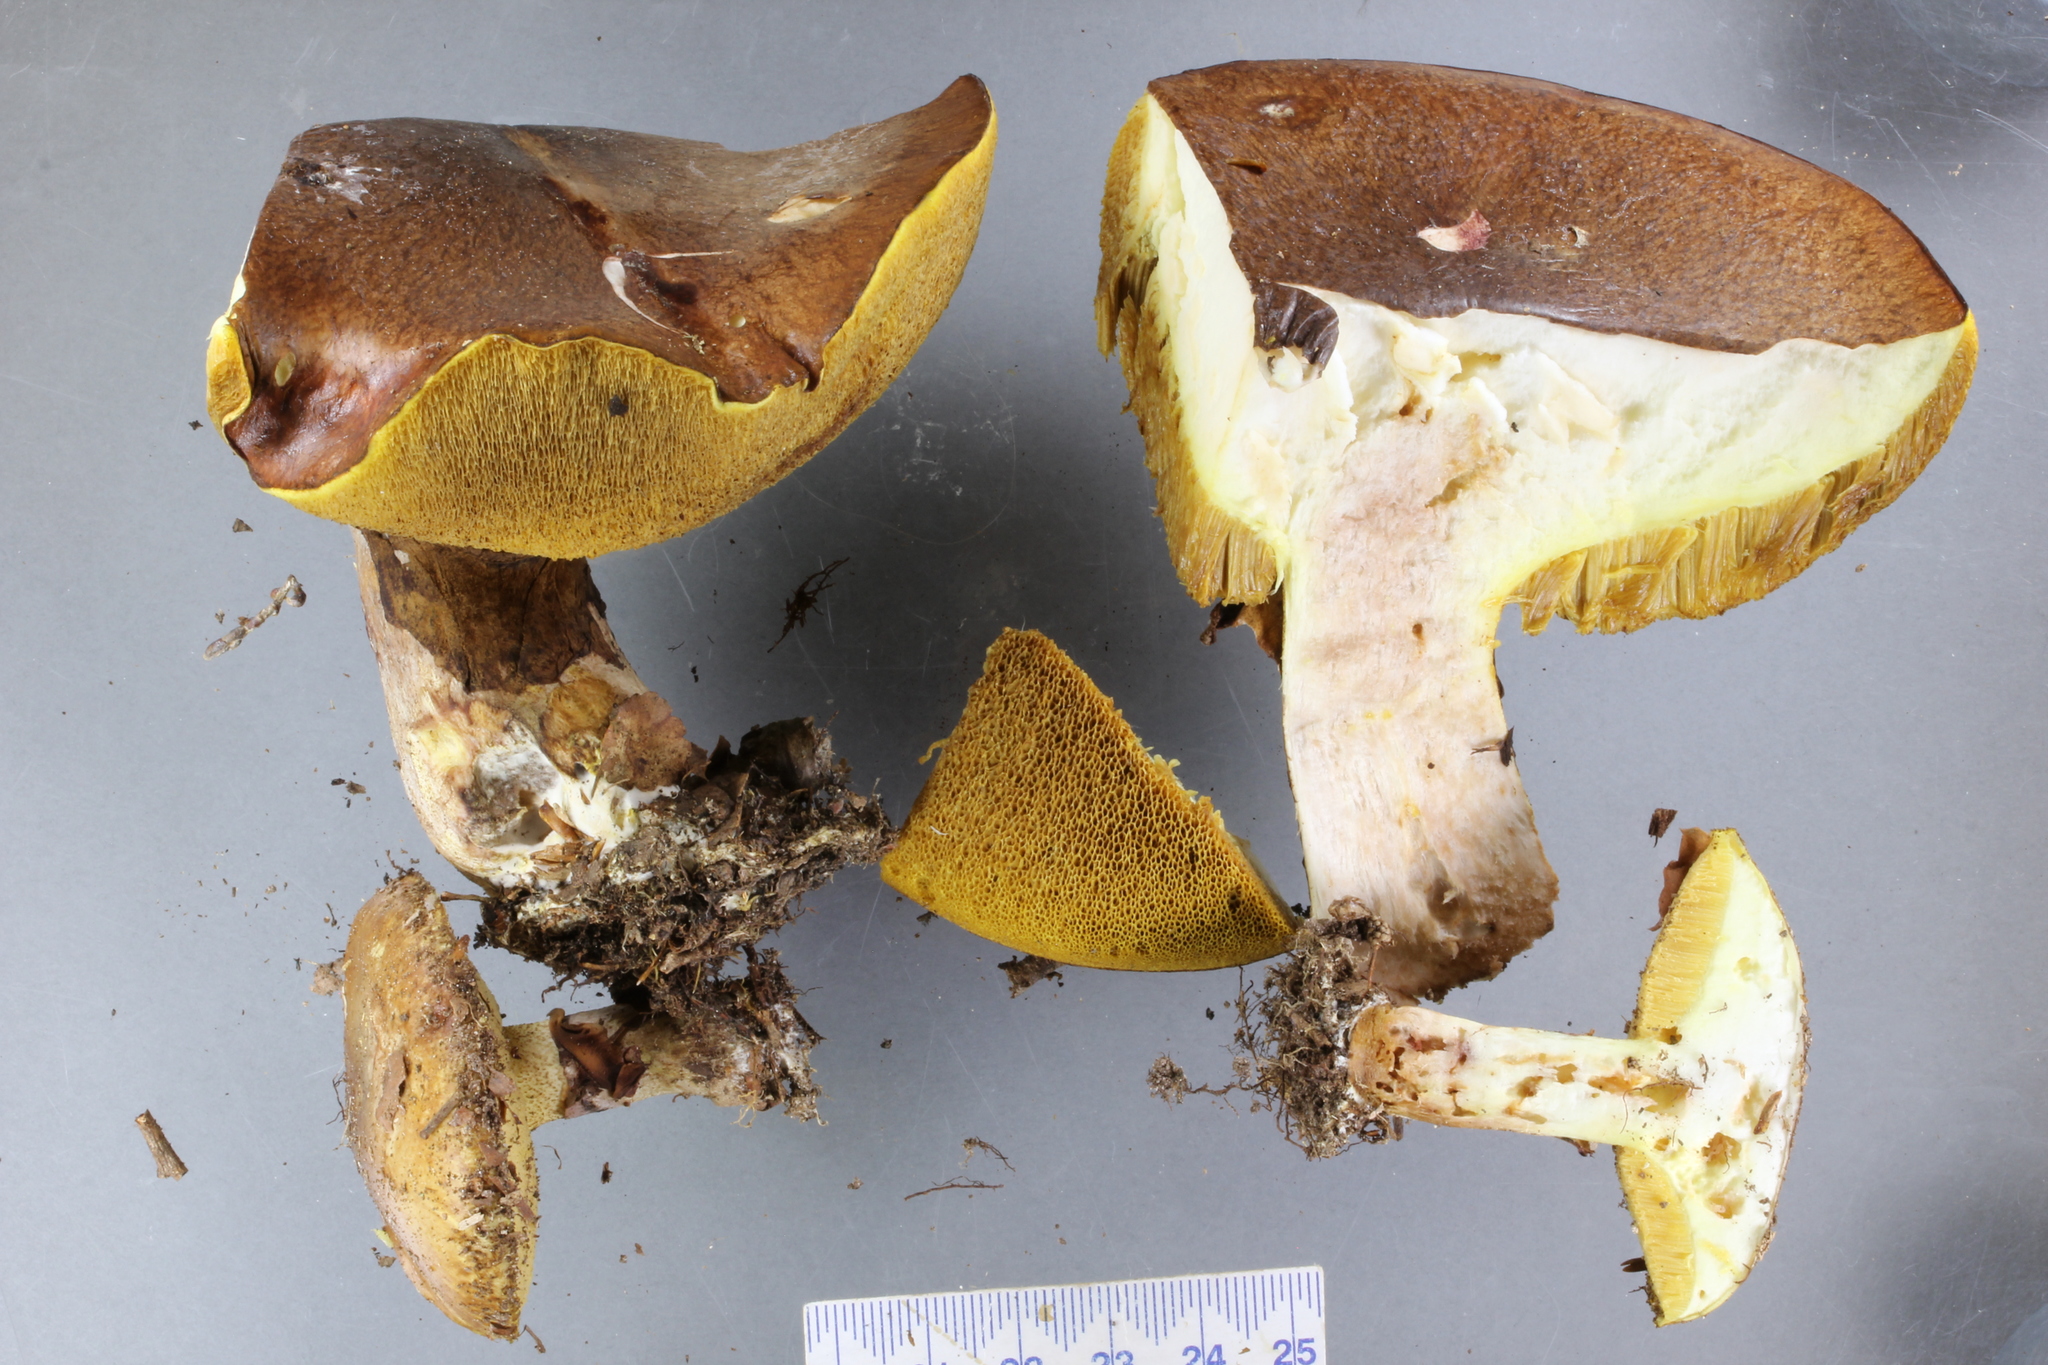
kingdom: Fungi
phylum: Basidiomycota
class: Agaricomycetes
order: Boletales
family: Suillaceae
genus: Suillus
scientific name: Suillus luteus
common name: Slippery jack
